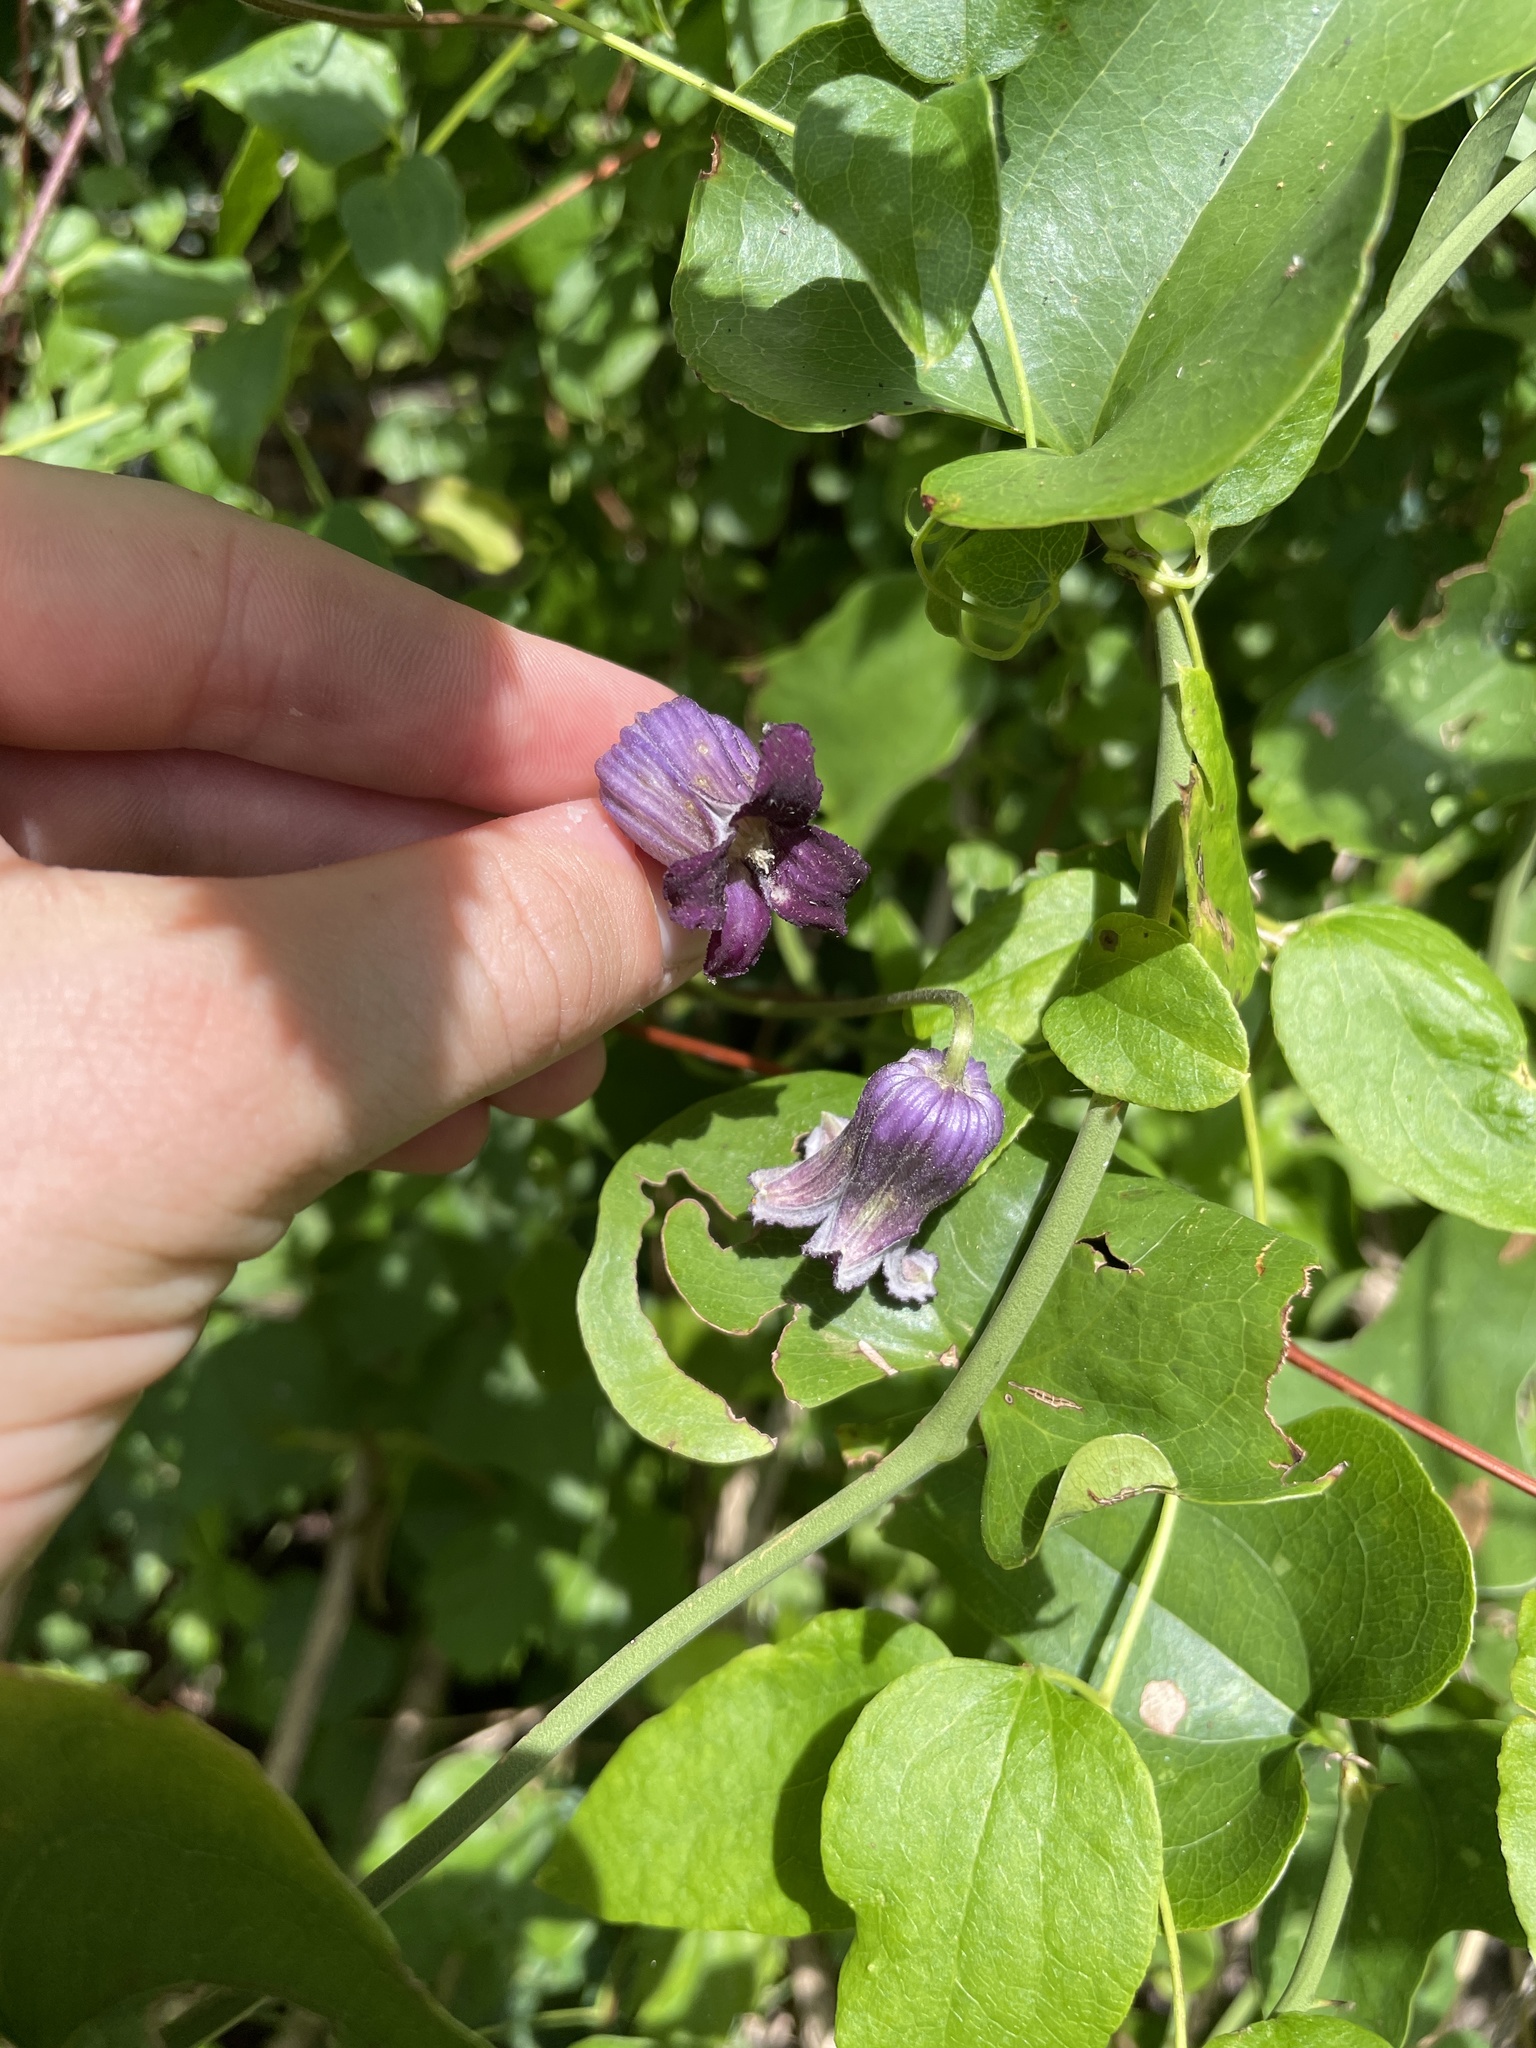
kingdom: Plantae
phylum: Tracheophyta
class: Magnoliopsida
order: Ranunculales
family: Ranunculaceae
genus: Clematis
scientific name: Clematis pitcheri
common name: Bellflower clematis
